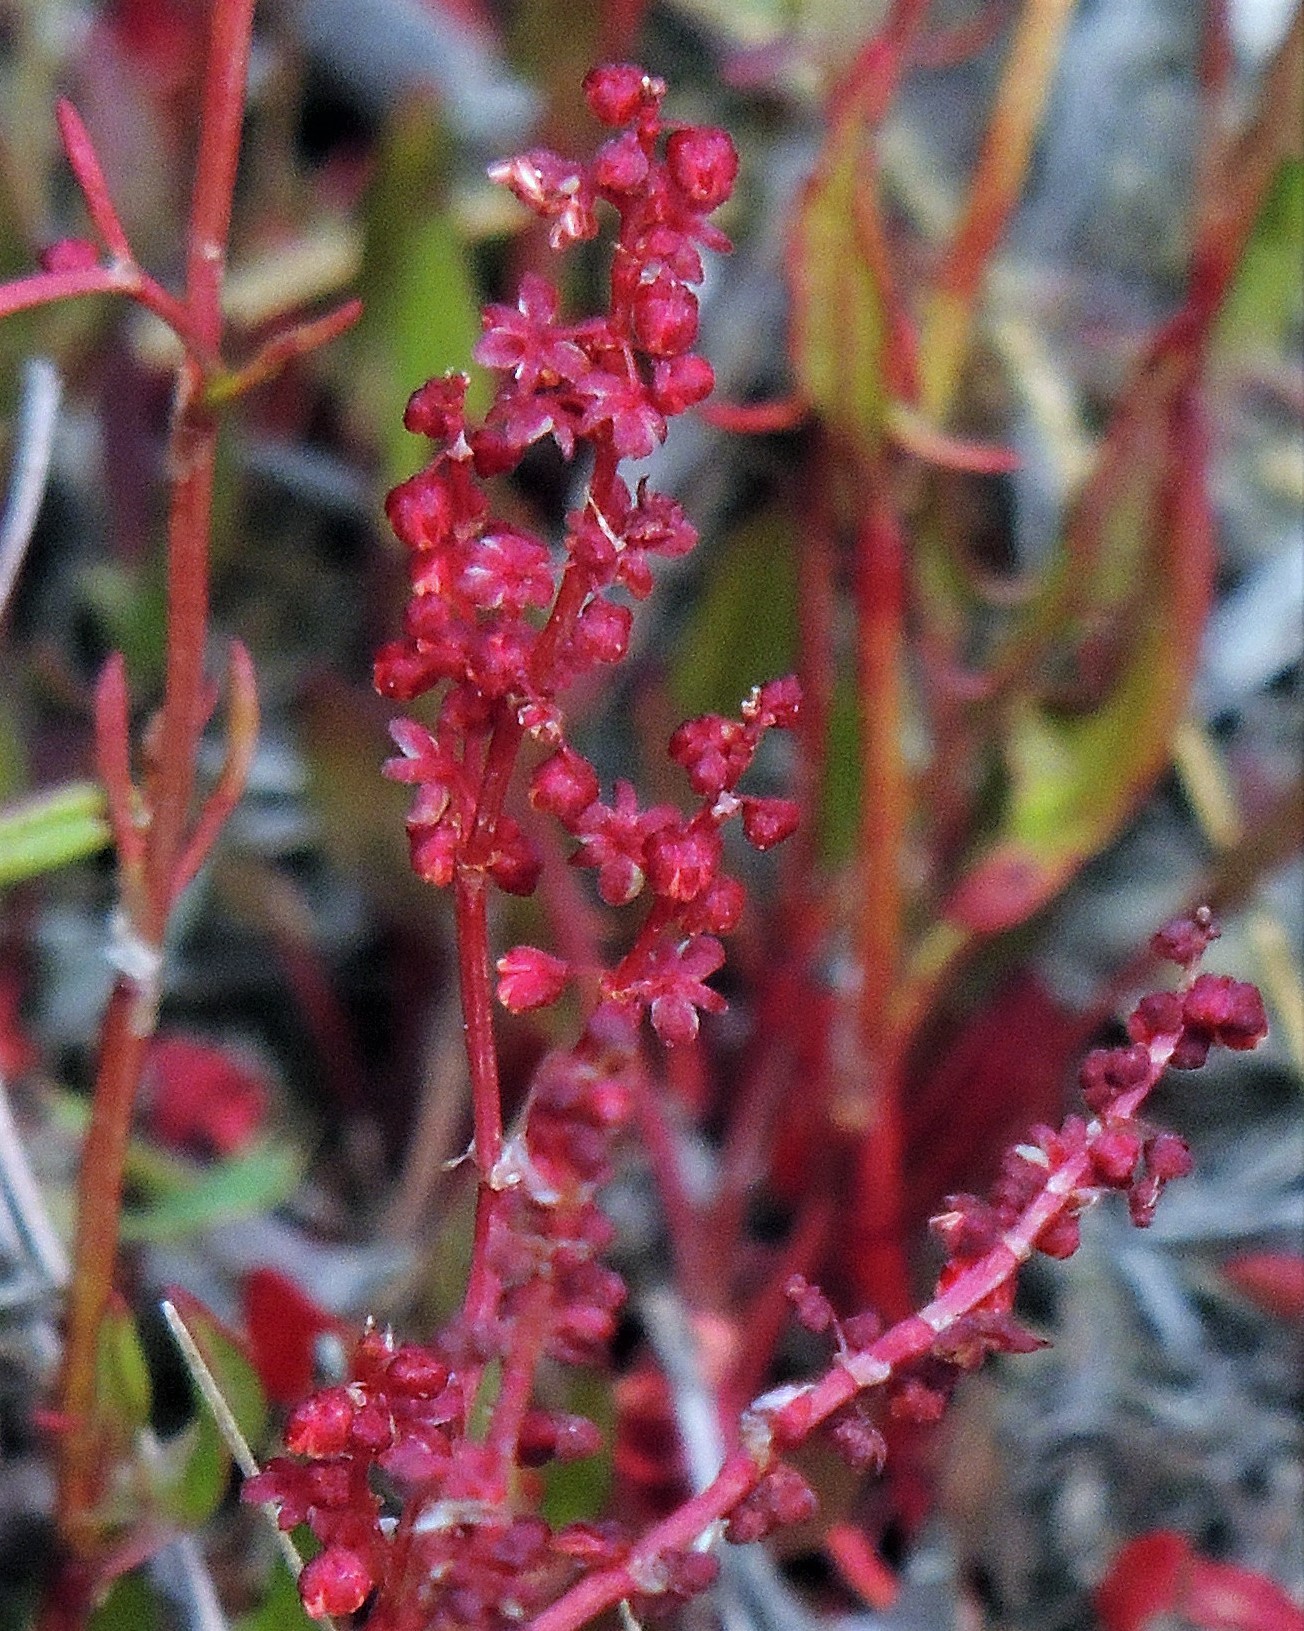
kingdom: Plantae
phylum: Tracheophyta
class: Magnoliopsida
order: Caryophyllales
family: Polygonaceae
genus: Rumex
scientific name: Rumex acetosella
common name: Common sheep sorrel
